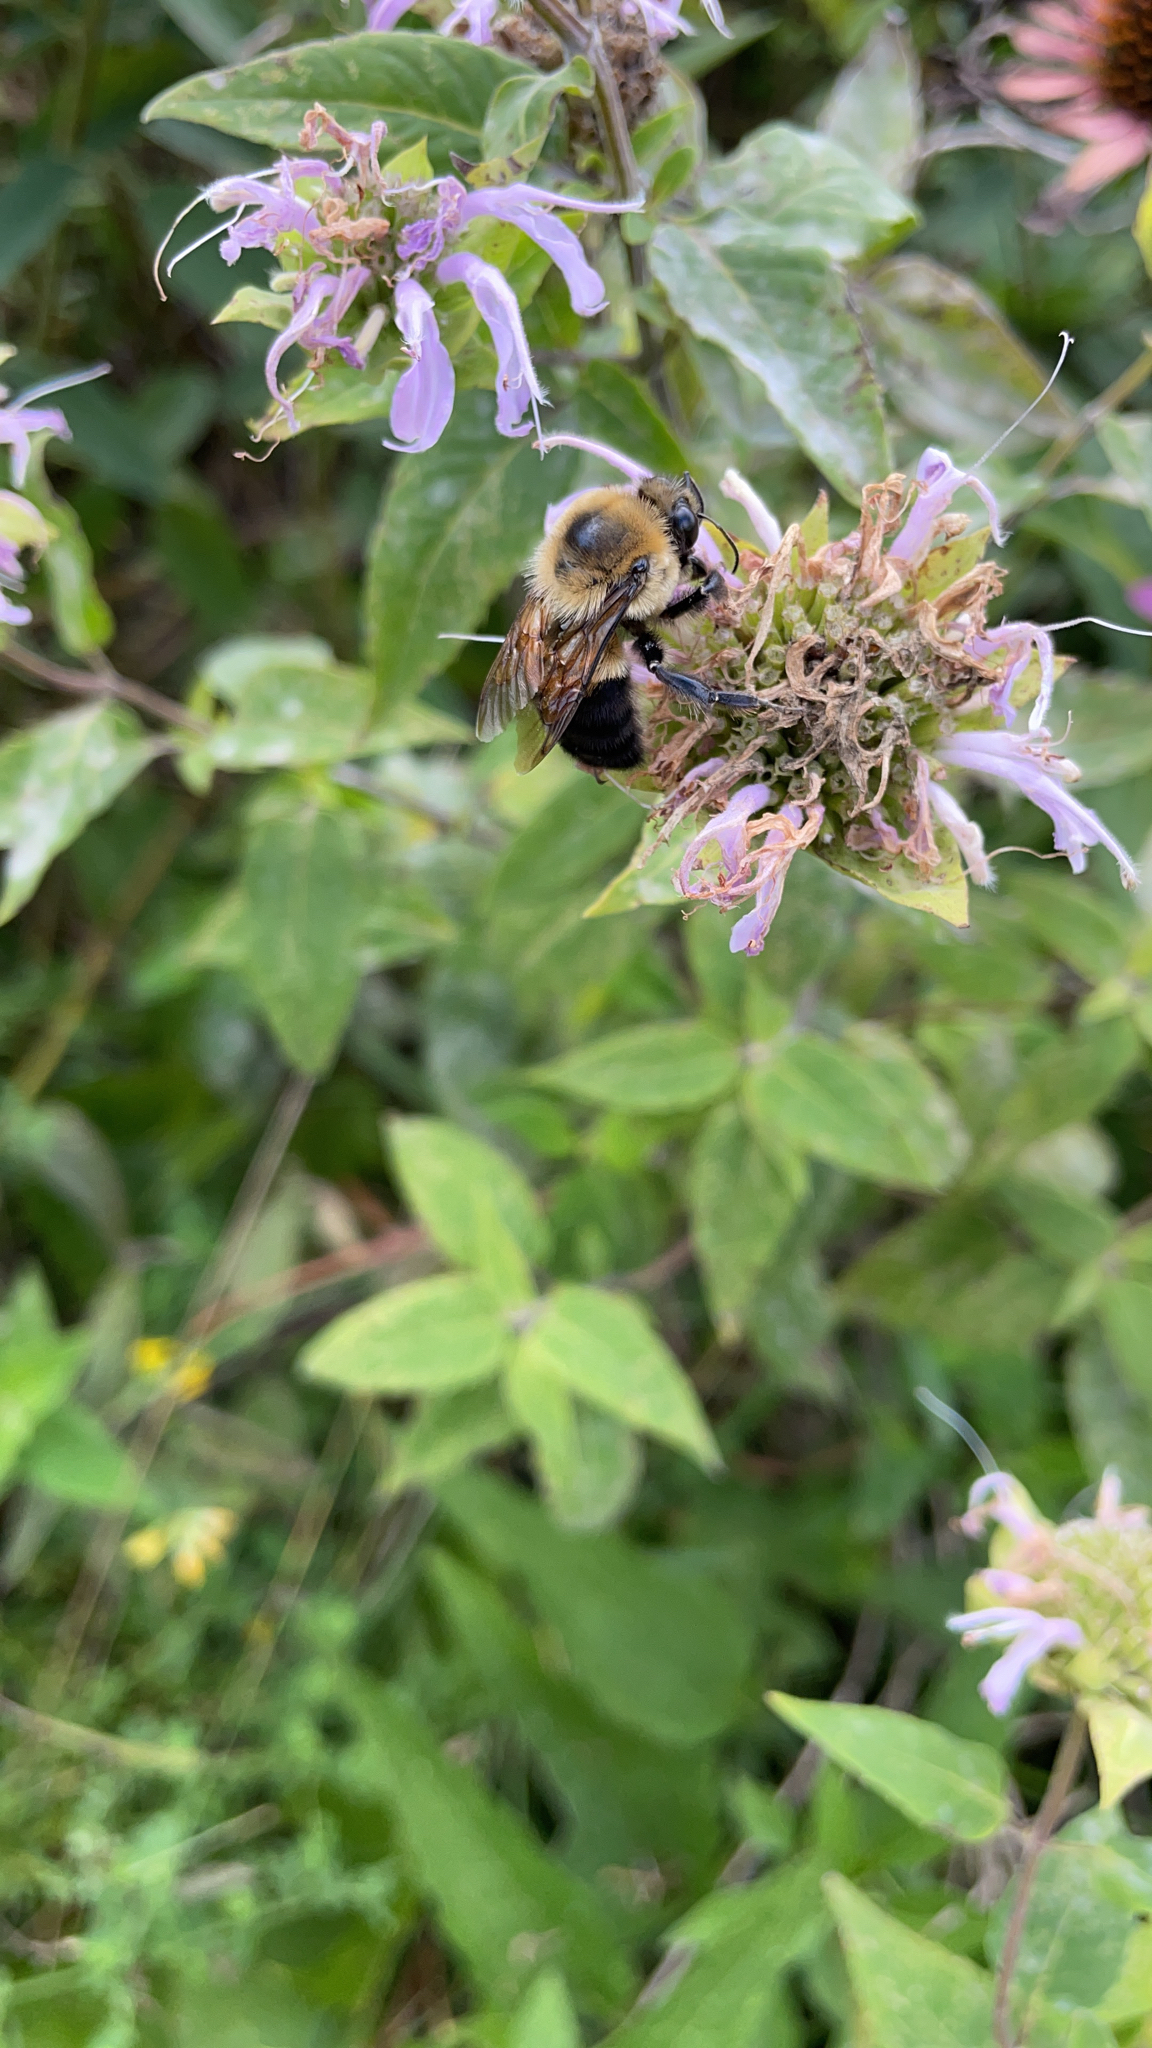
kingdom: Animalia
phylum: Arthropoda
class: Insecta
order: Hymenoptera
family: Apidae
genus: Bombus
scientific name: Bombus griseocollis
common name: Brown-belted bumble bee
